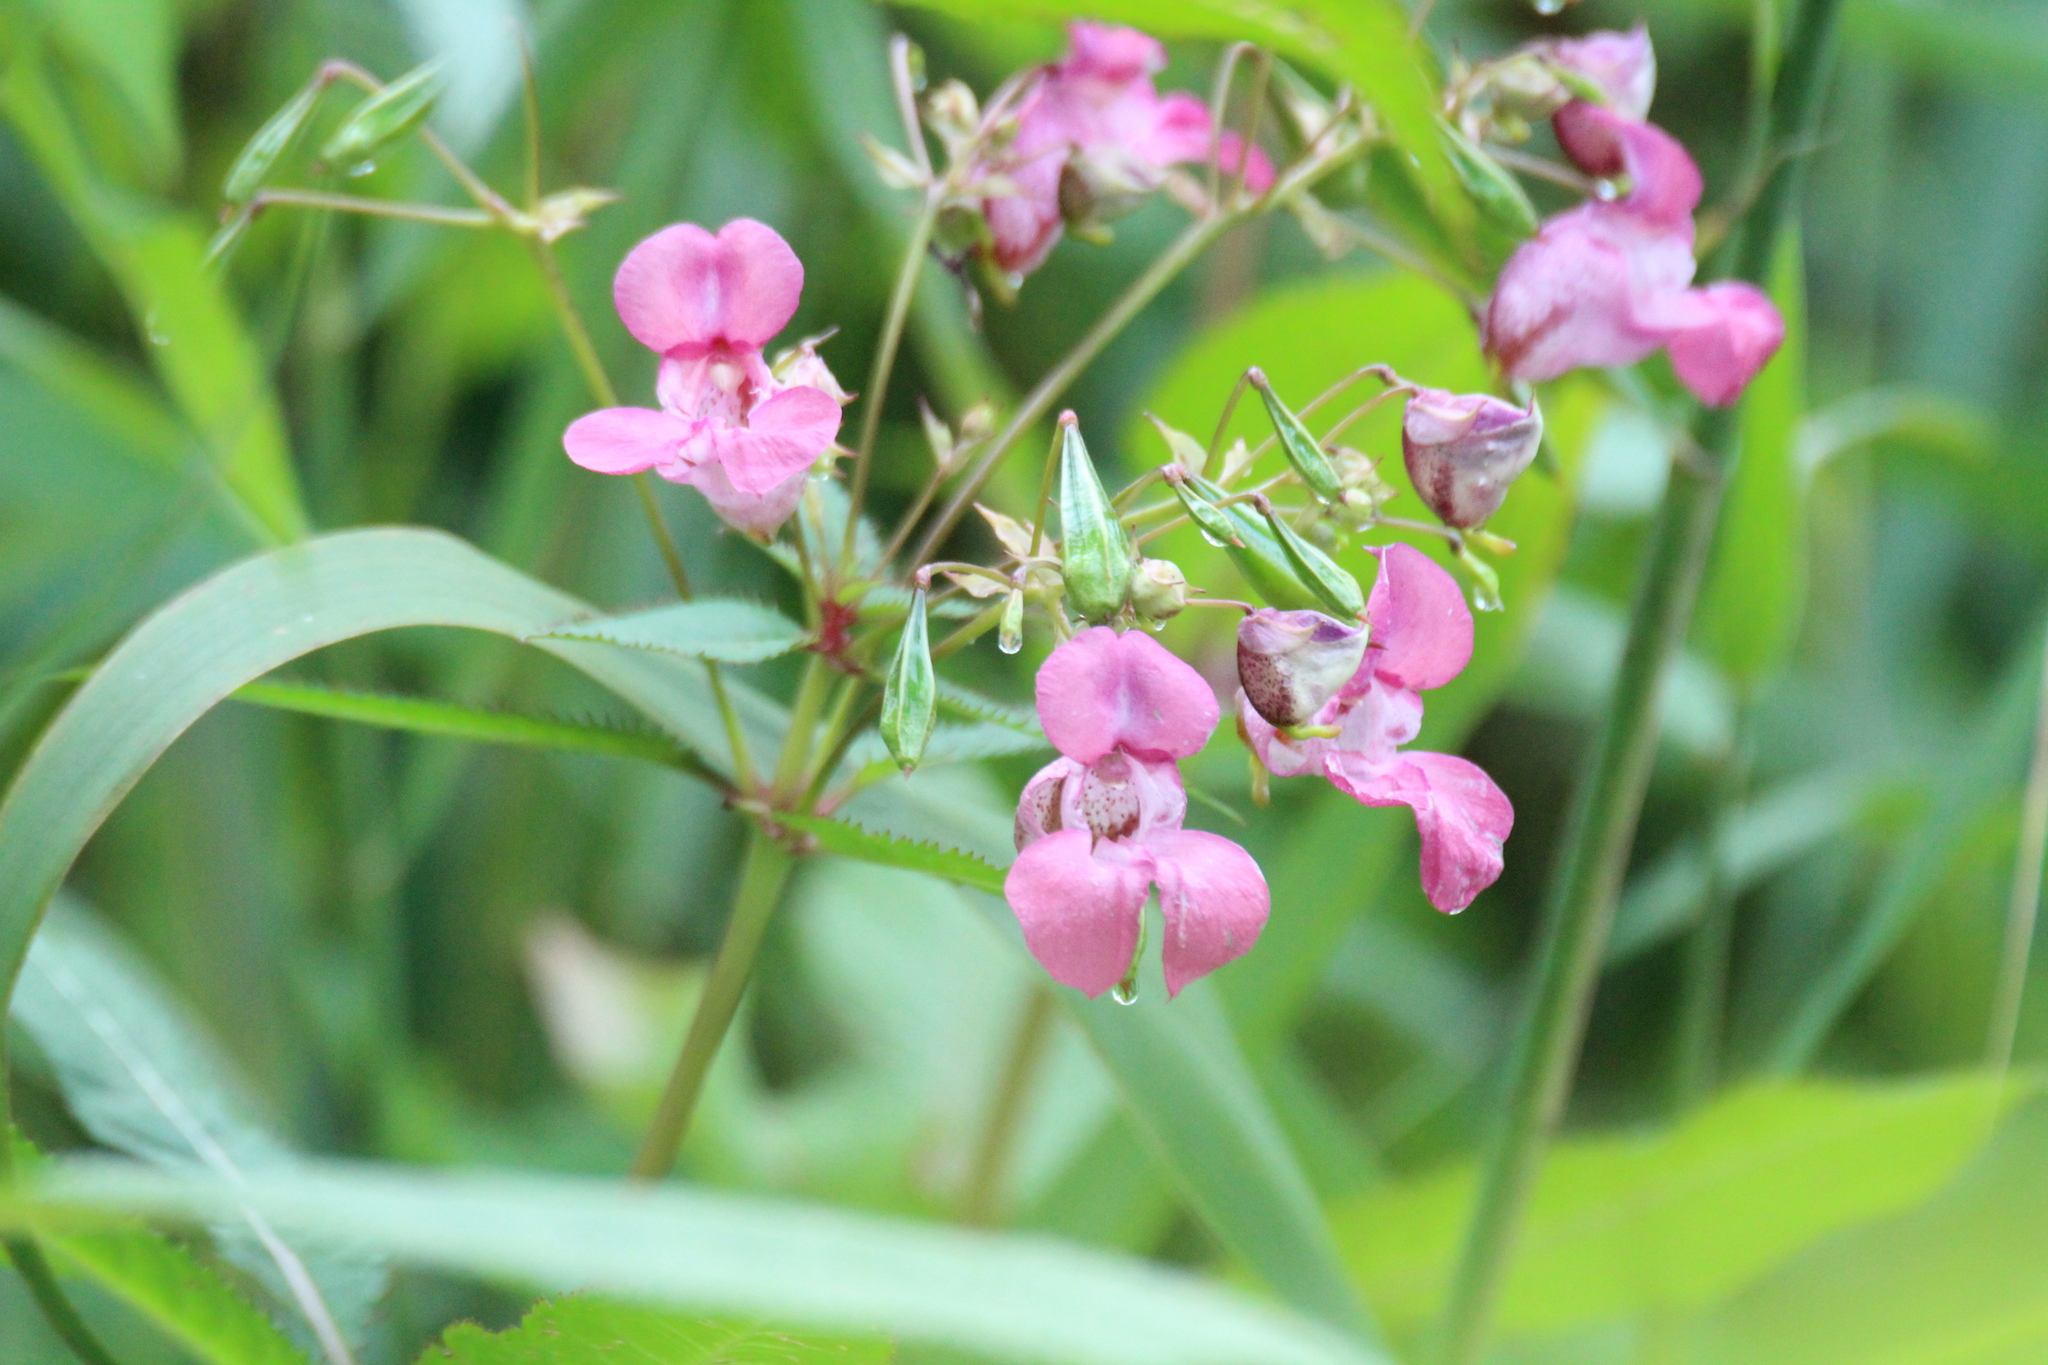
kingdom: Plantae
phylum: Tracheophyta
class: Magnoliopsida
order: Ericales
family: Balsaminaceae
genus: Impatiens
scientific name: Impatiens glandulifera
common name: Himalayan balsam
